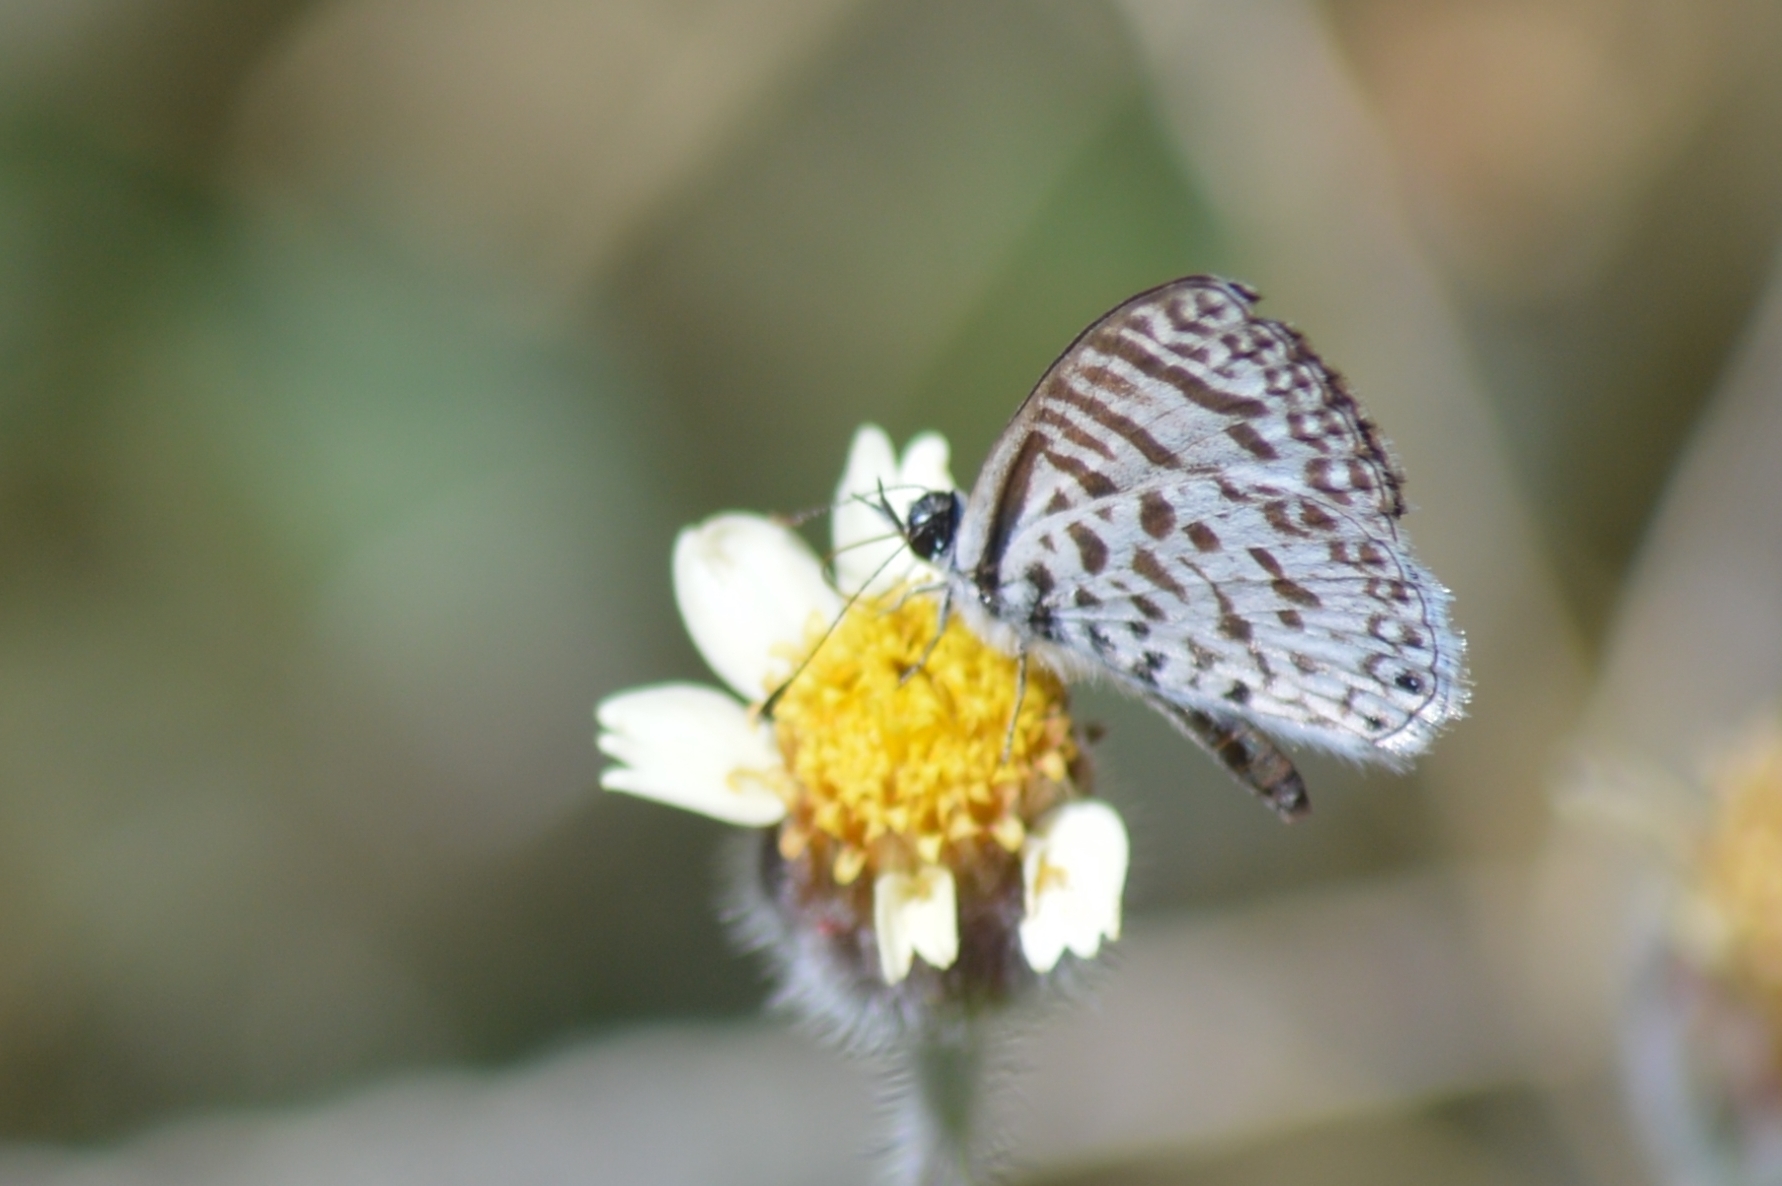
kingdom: Animalia
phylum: Arthropoda
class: Insecta
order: Lepidoptera
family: Lycaenidae
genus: Leptotes
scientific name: Leptotes cassius
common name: Cassius blue
